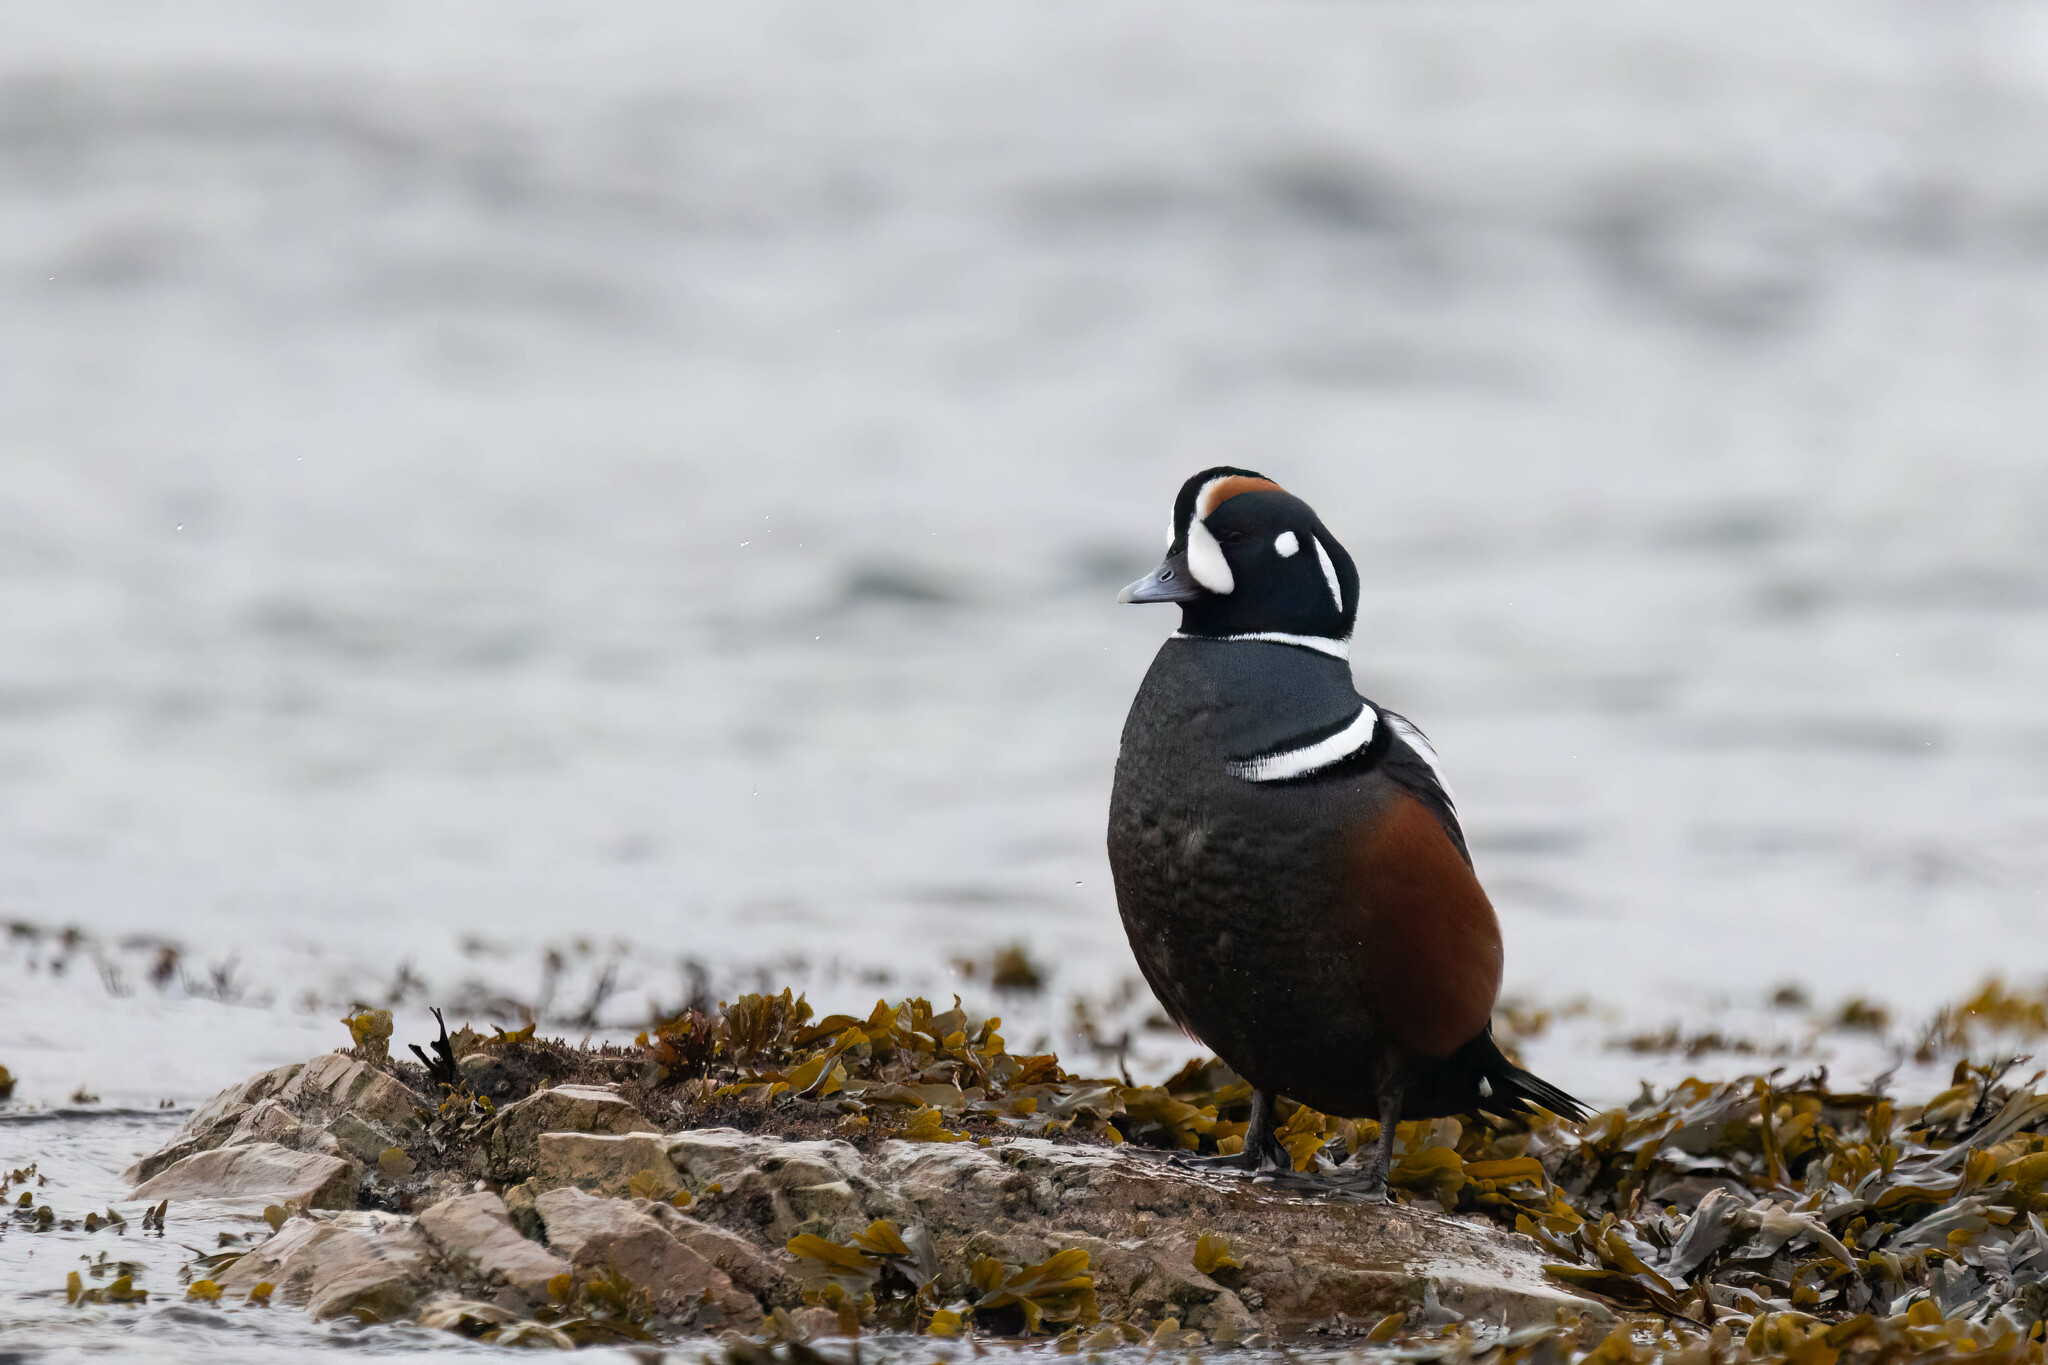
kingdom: Animalia
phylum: Chordata
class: Aves
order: Anseriformes
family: Anatidae
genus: Histrionicus
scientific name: Histrionicus histrionicus
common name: Harlequin duck
